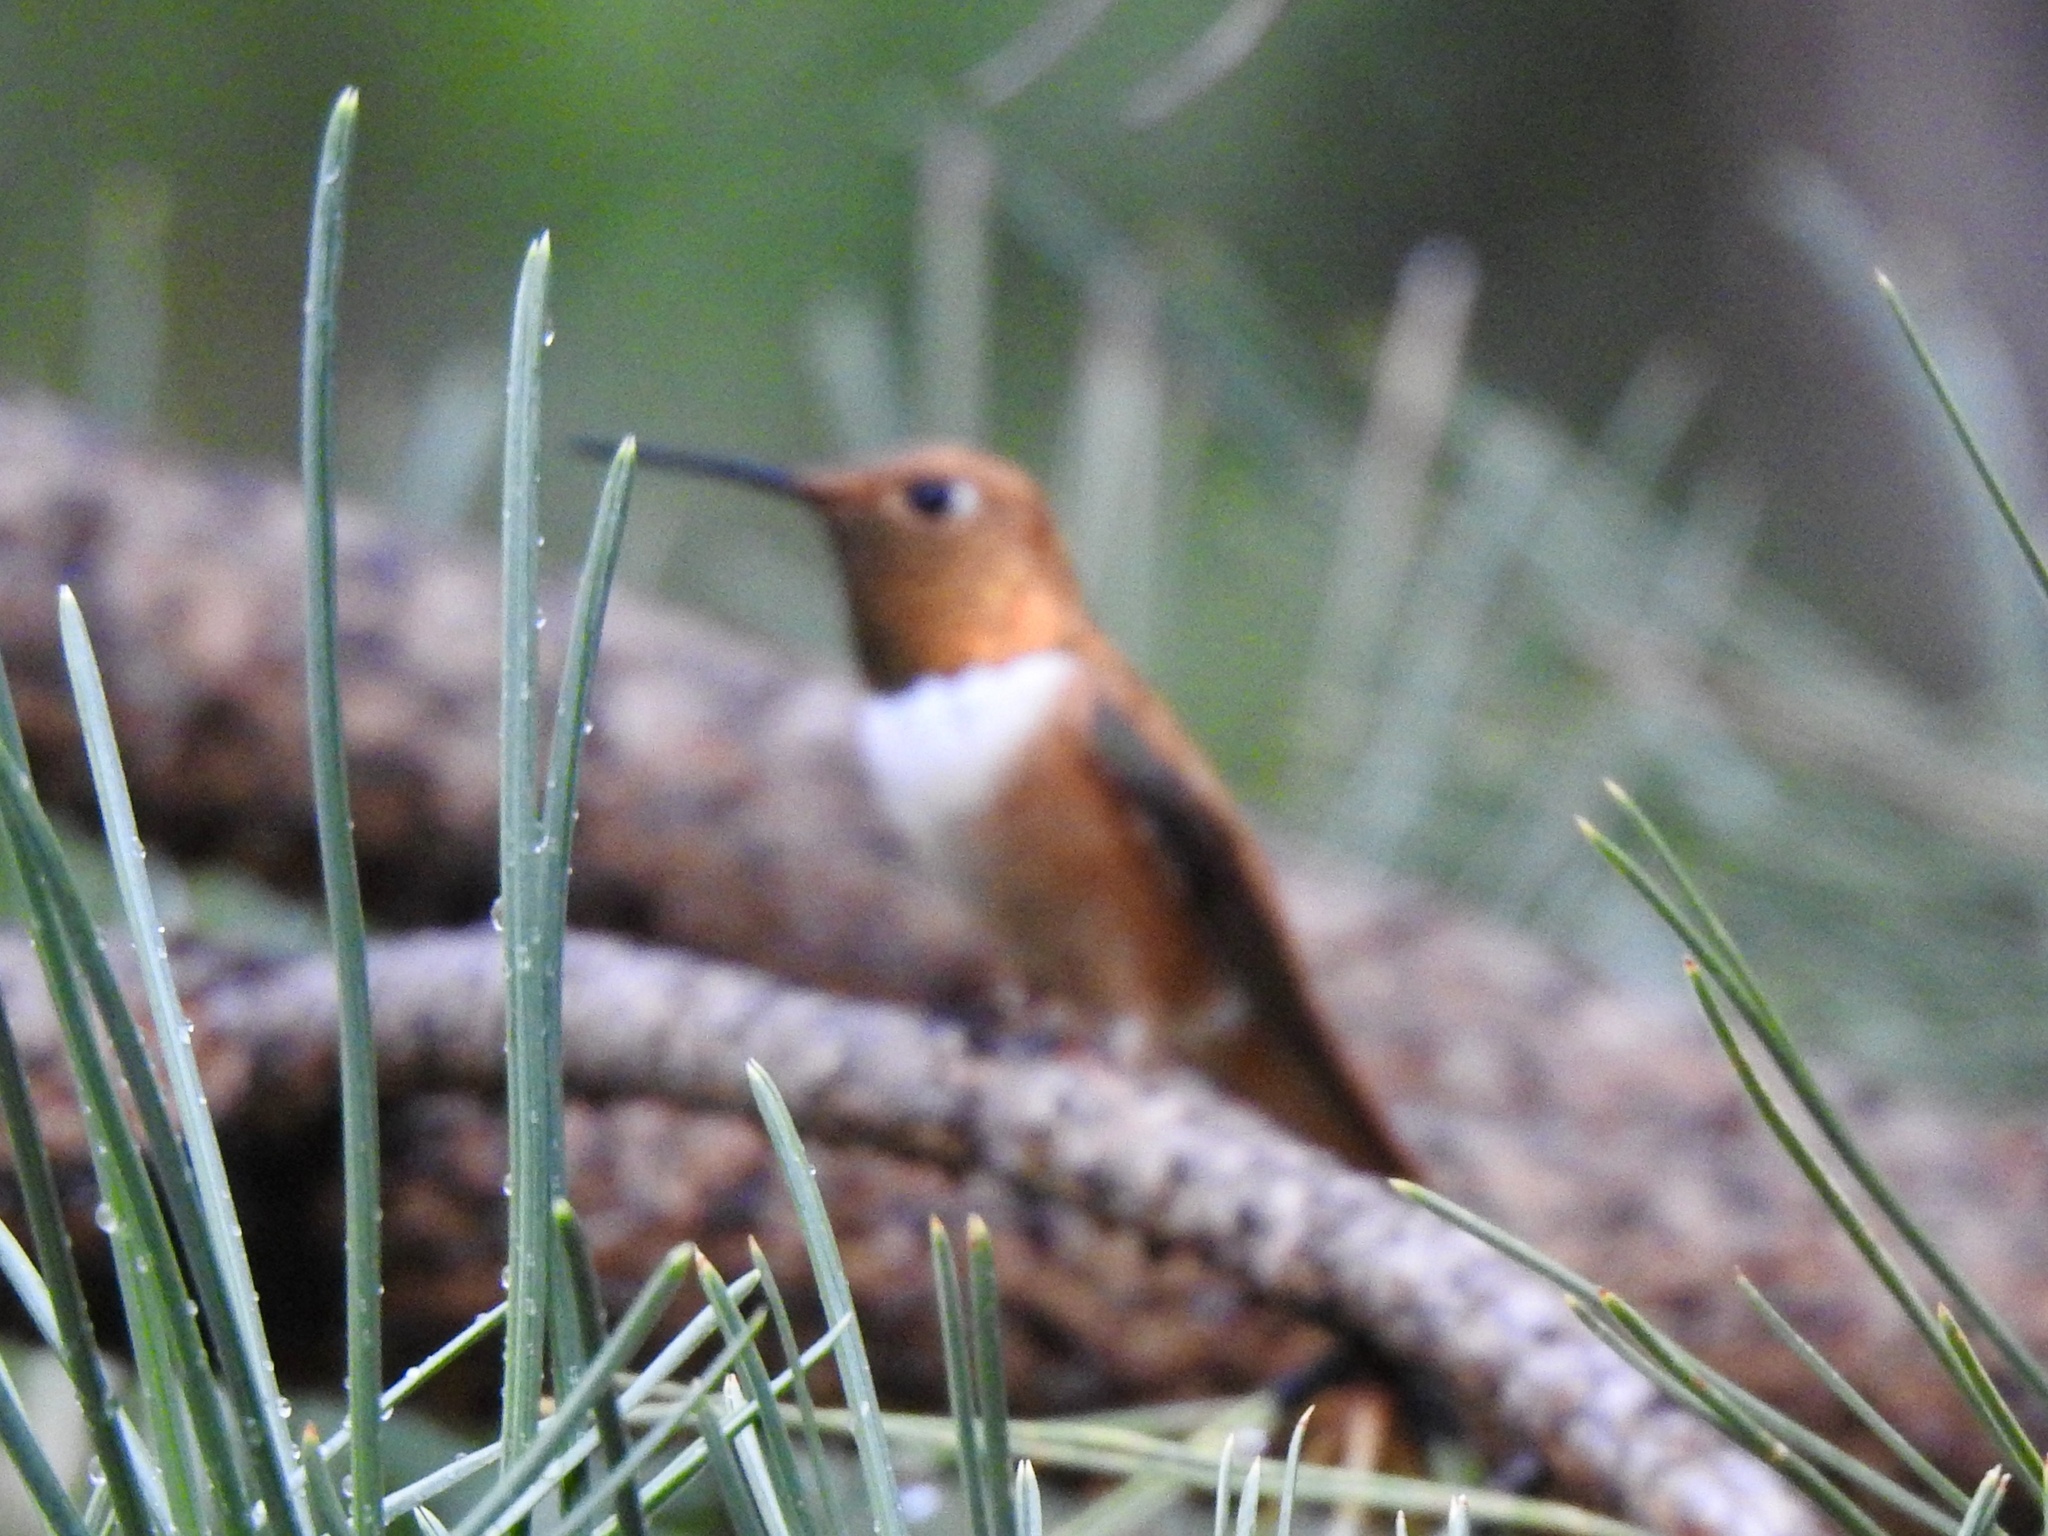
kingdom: Animalia
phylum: Chordata
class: Aves
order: Apodiformes
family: Trochilidae
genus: Selasphorus
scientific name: Selasphorus rufus
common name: Rufous hummingbird
